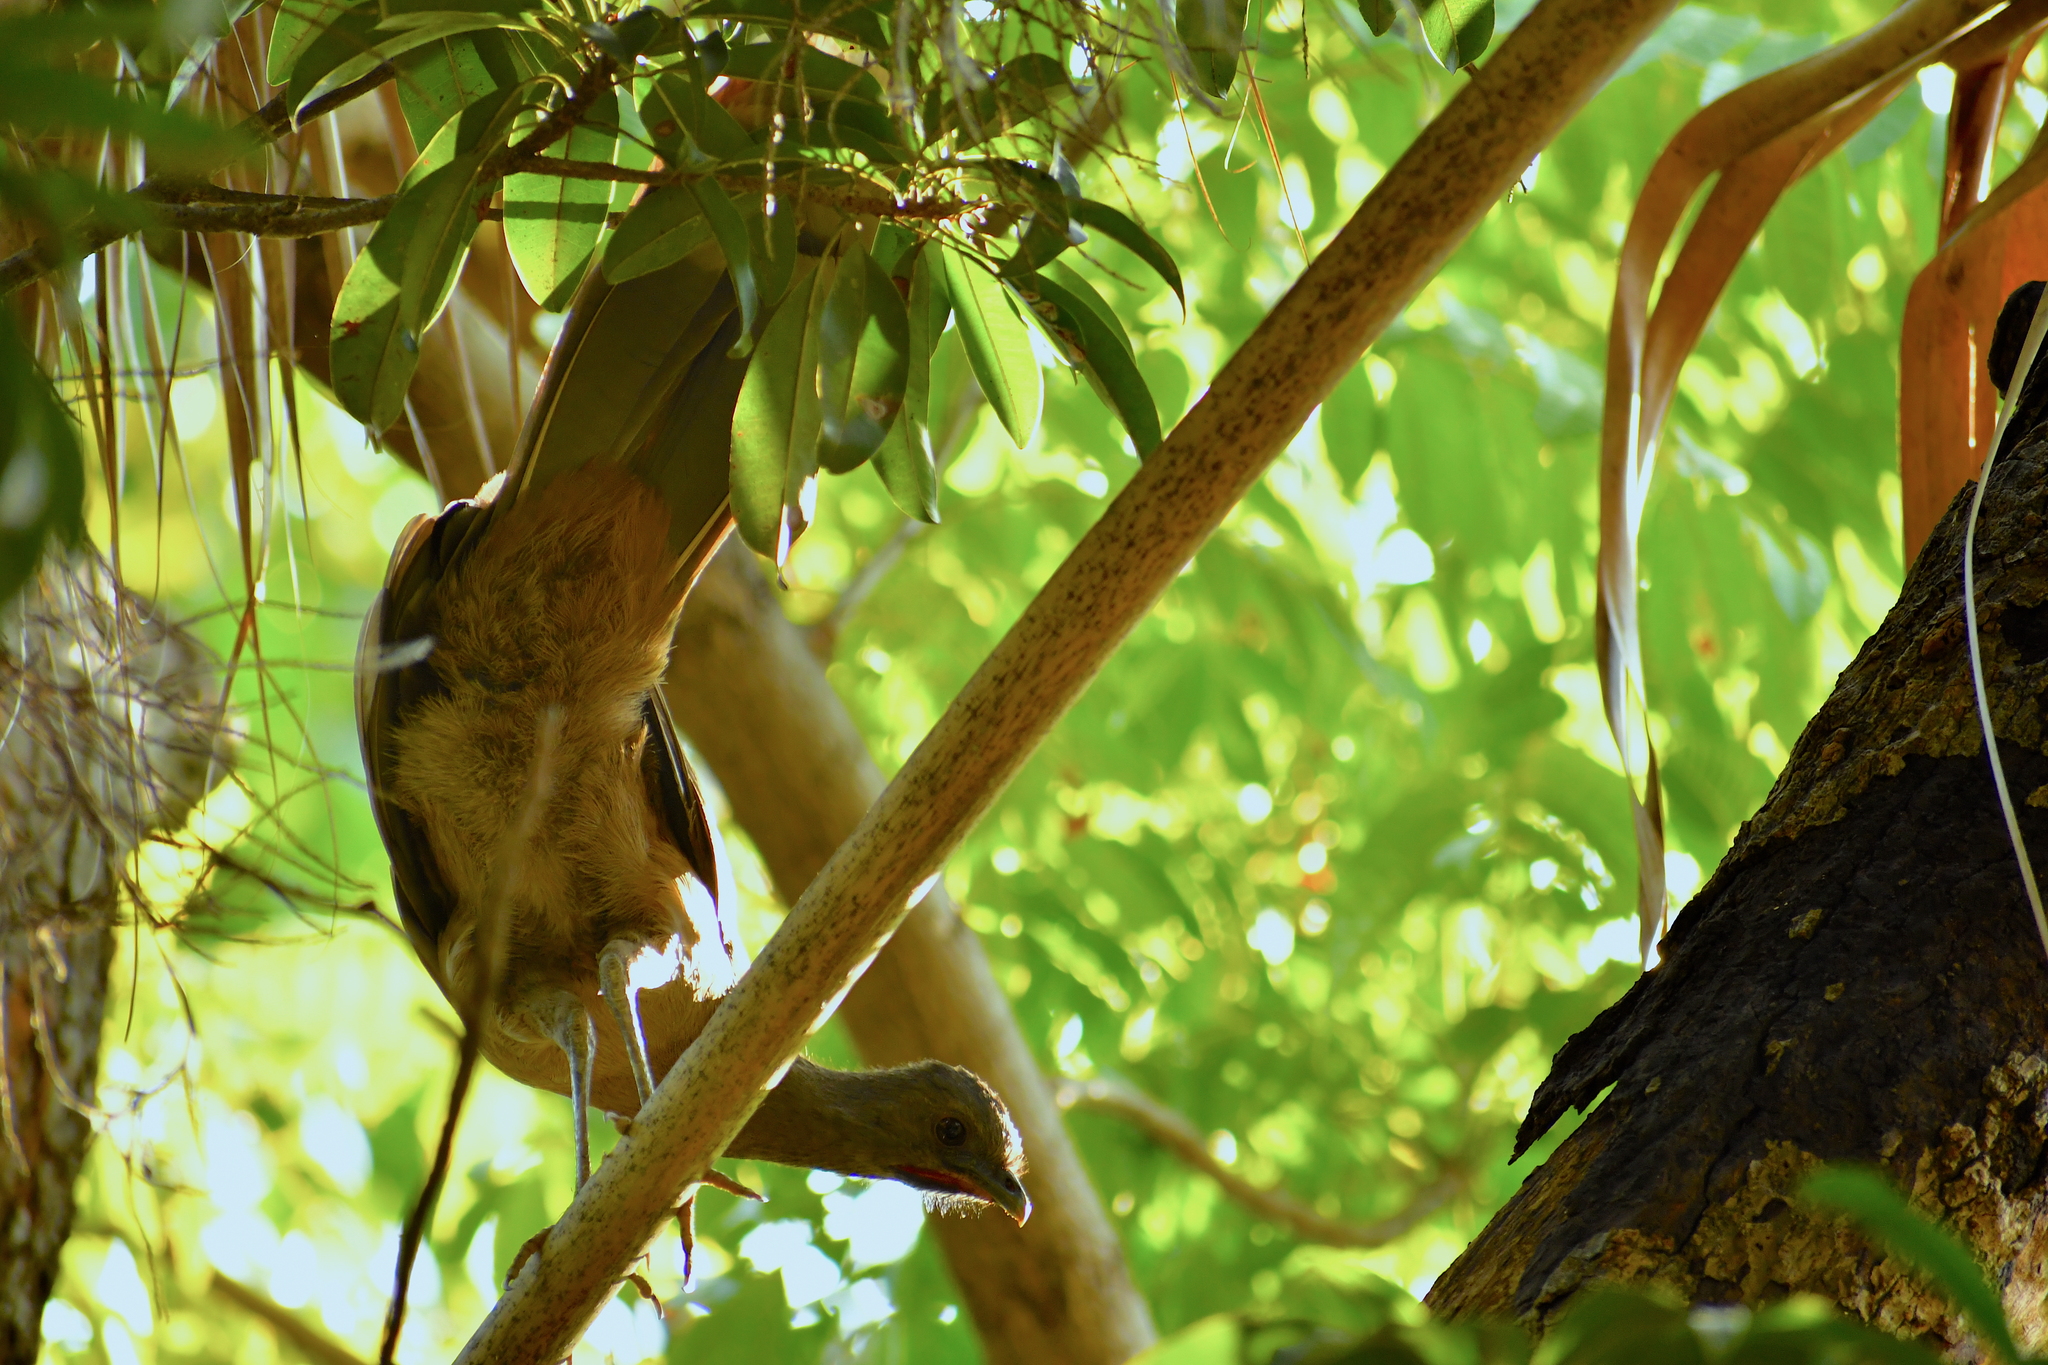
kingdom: Animalia
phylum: Chordata
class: Aves
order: Galliformes
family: Cracidae
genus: Ortalis
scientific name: Ortalis vetula
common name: Plain chachalaca
